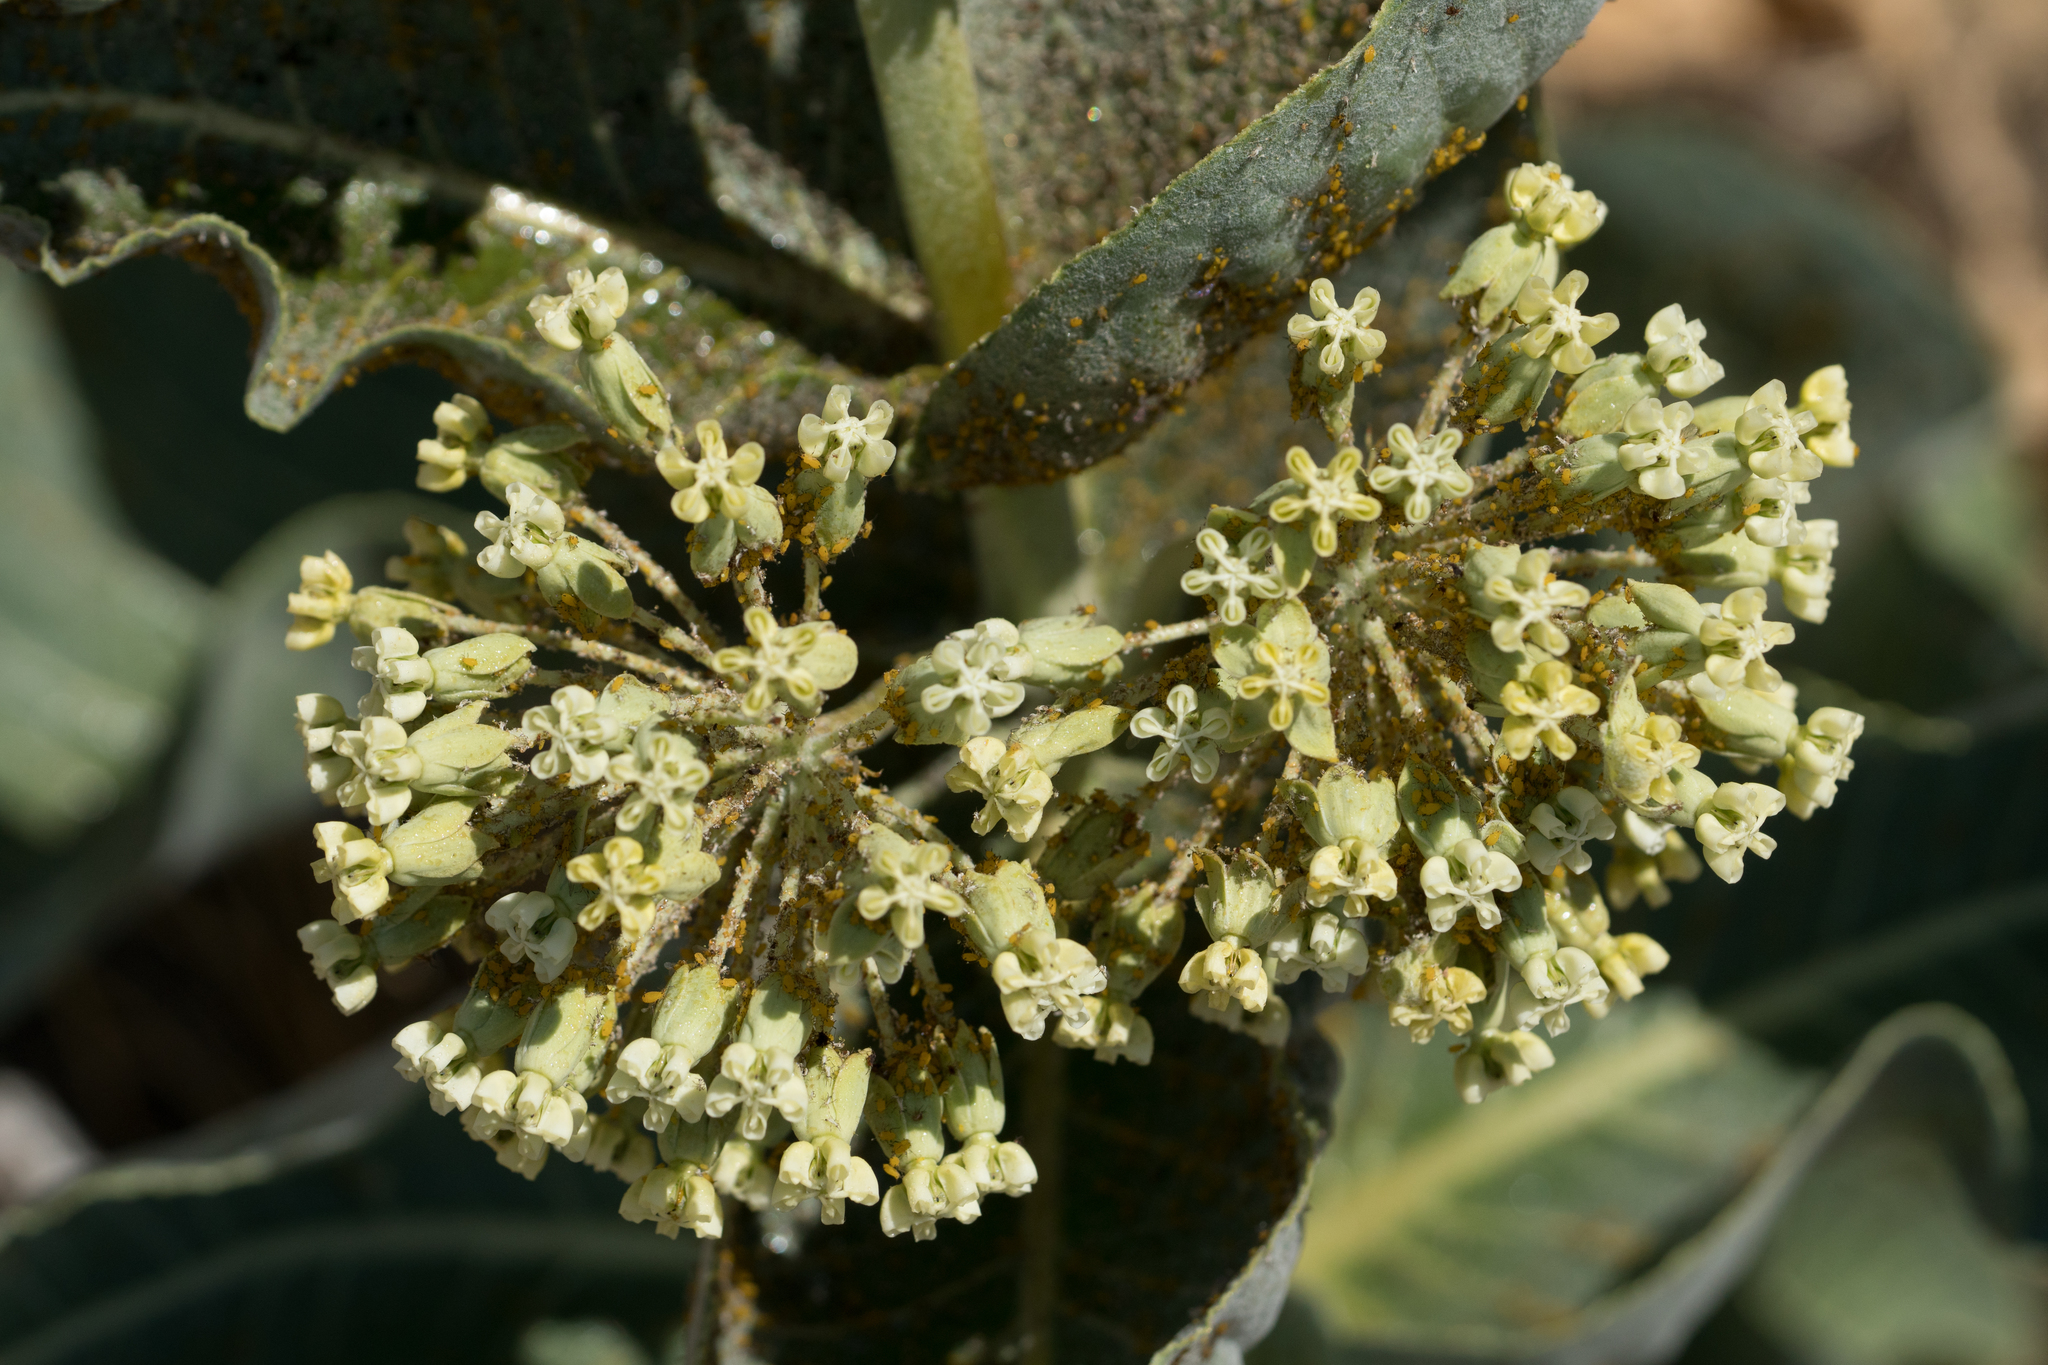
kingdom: Plantae
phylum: Tracheophyta
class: Magnoliopsida
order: Gentianales
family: Apocynaceae
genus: Asclepias
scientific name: Asclepias erosa
